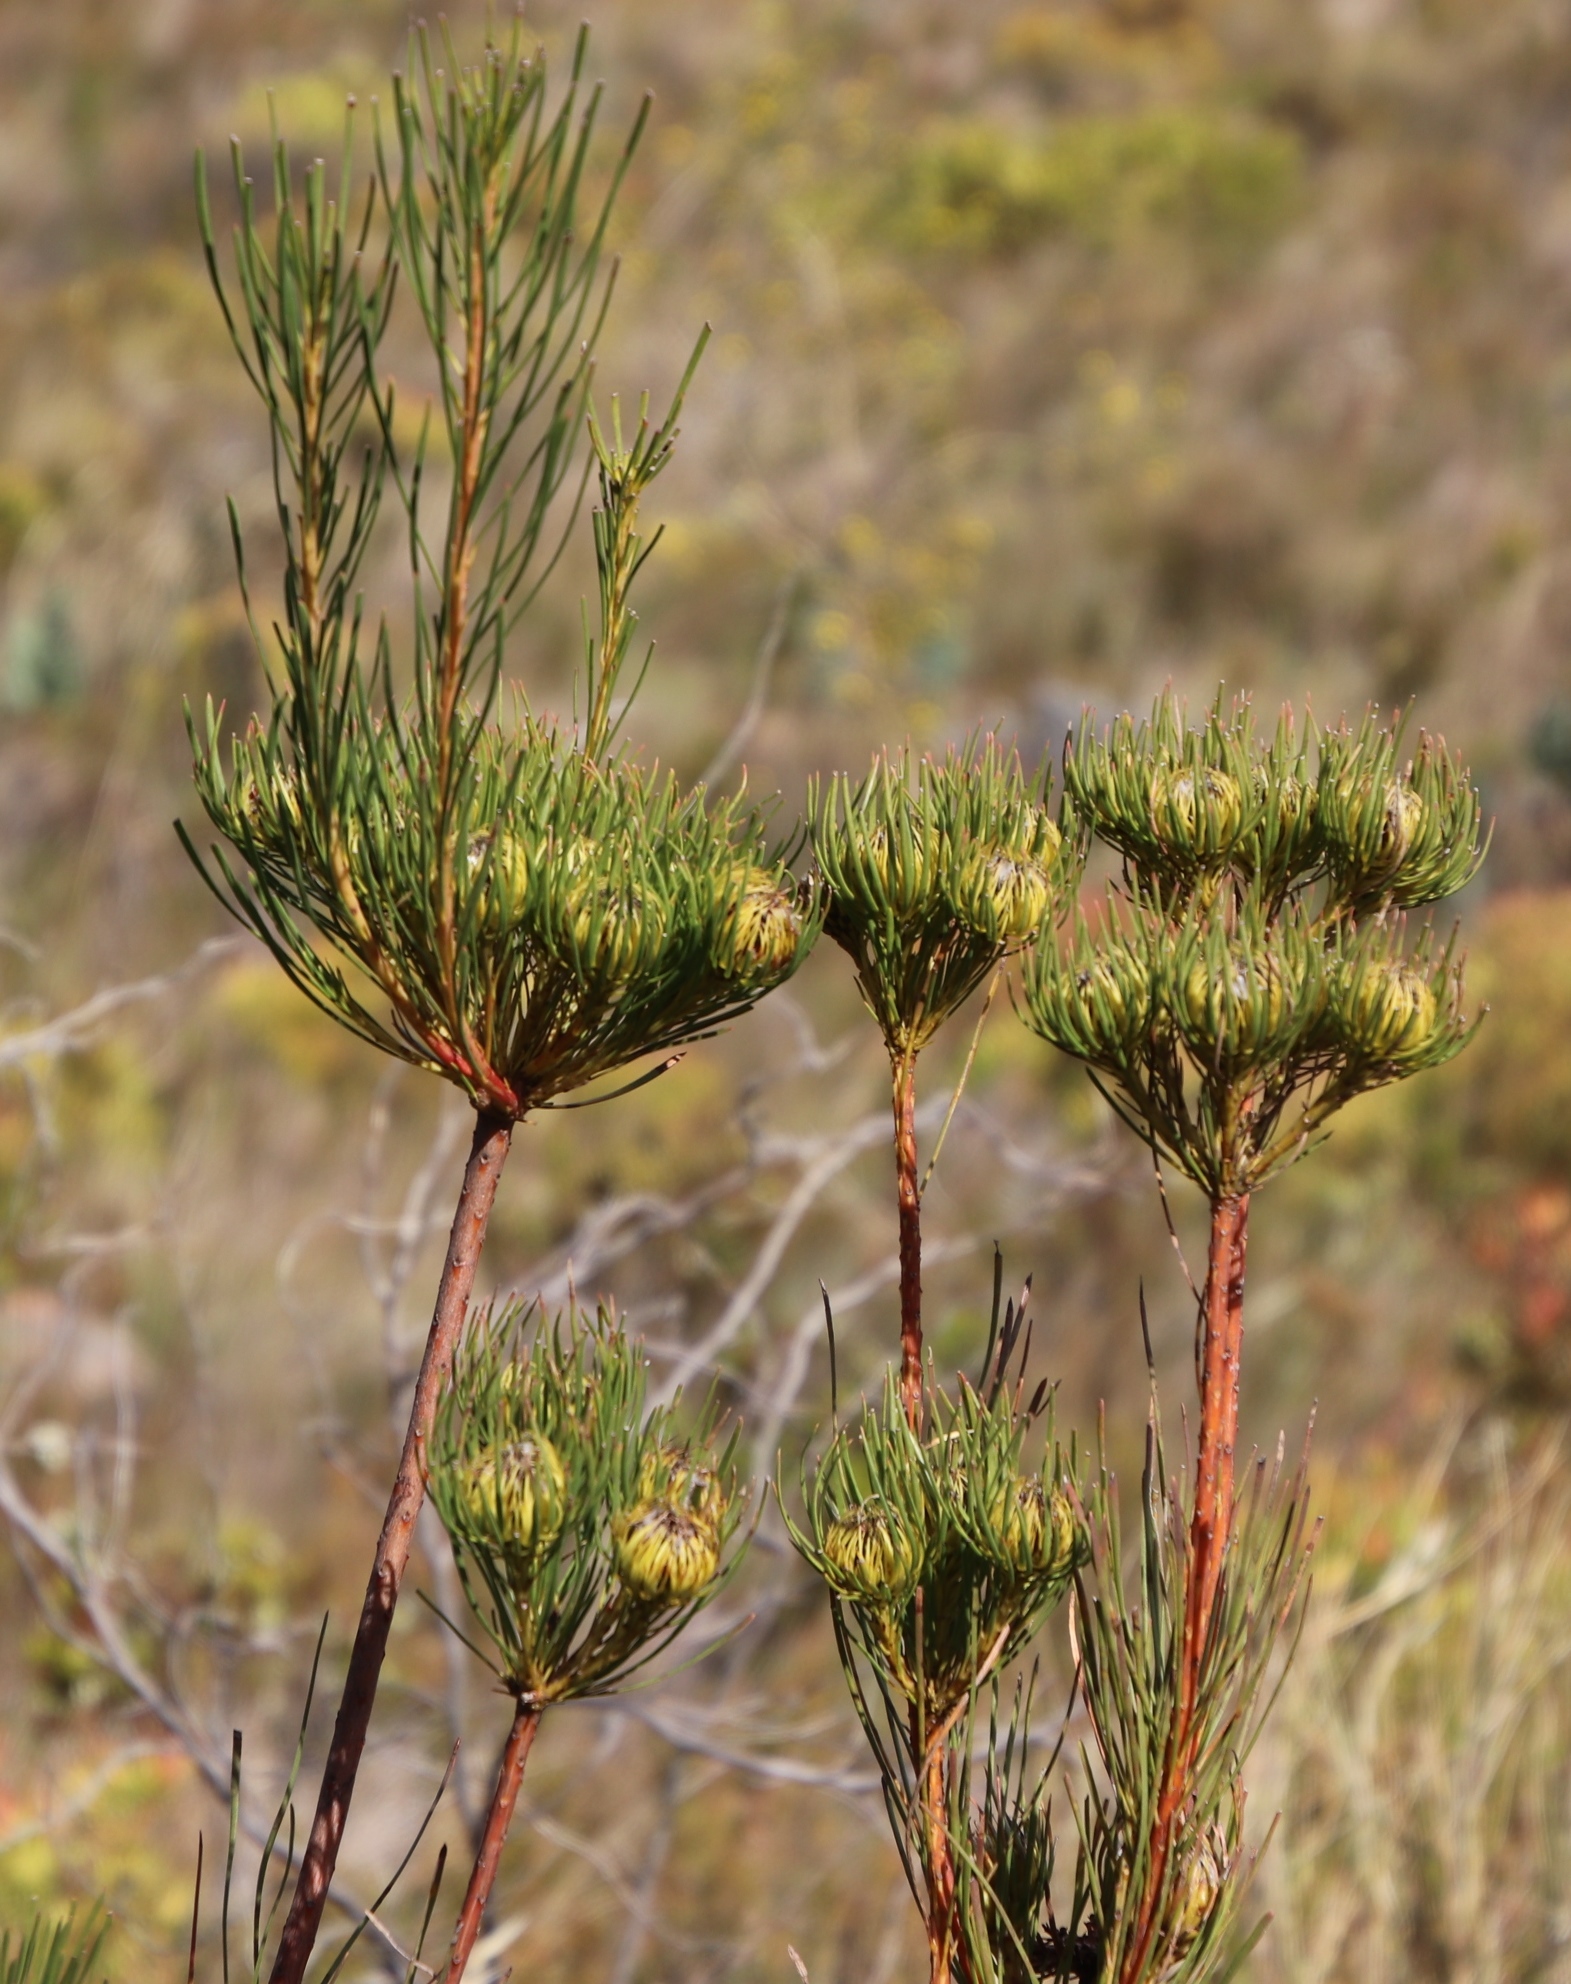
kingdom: Plantae
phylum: Tracheophyta
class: Magnoliopsida
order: Proteales
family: Proteaceae
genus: Aulax
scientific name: Aulax pallasia
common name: Needle-leaf featherbush
